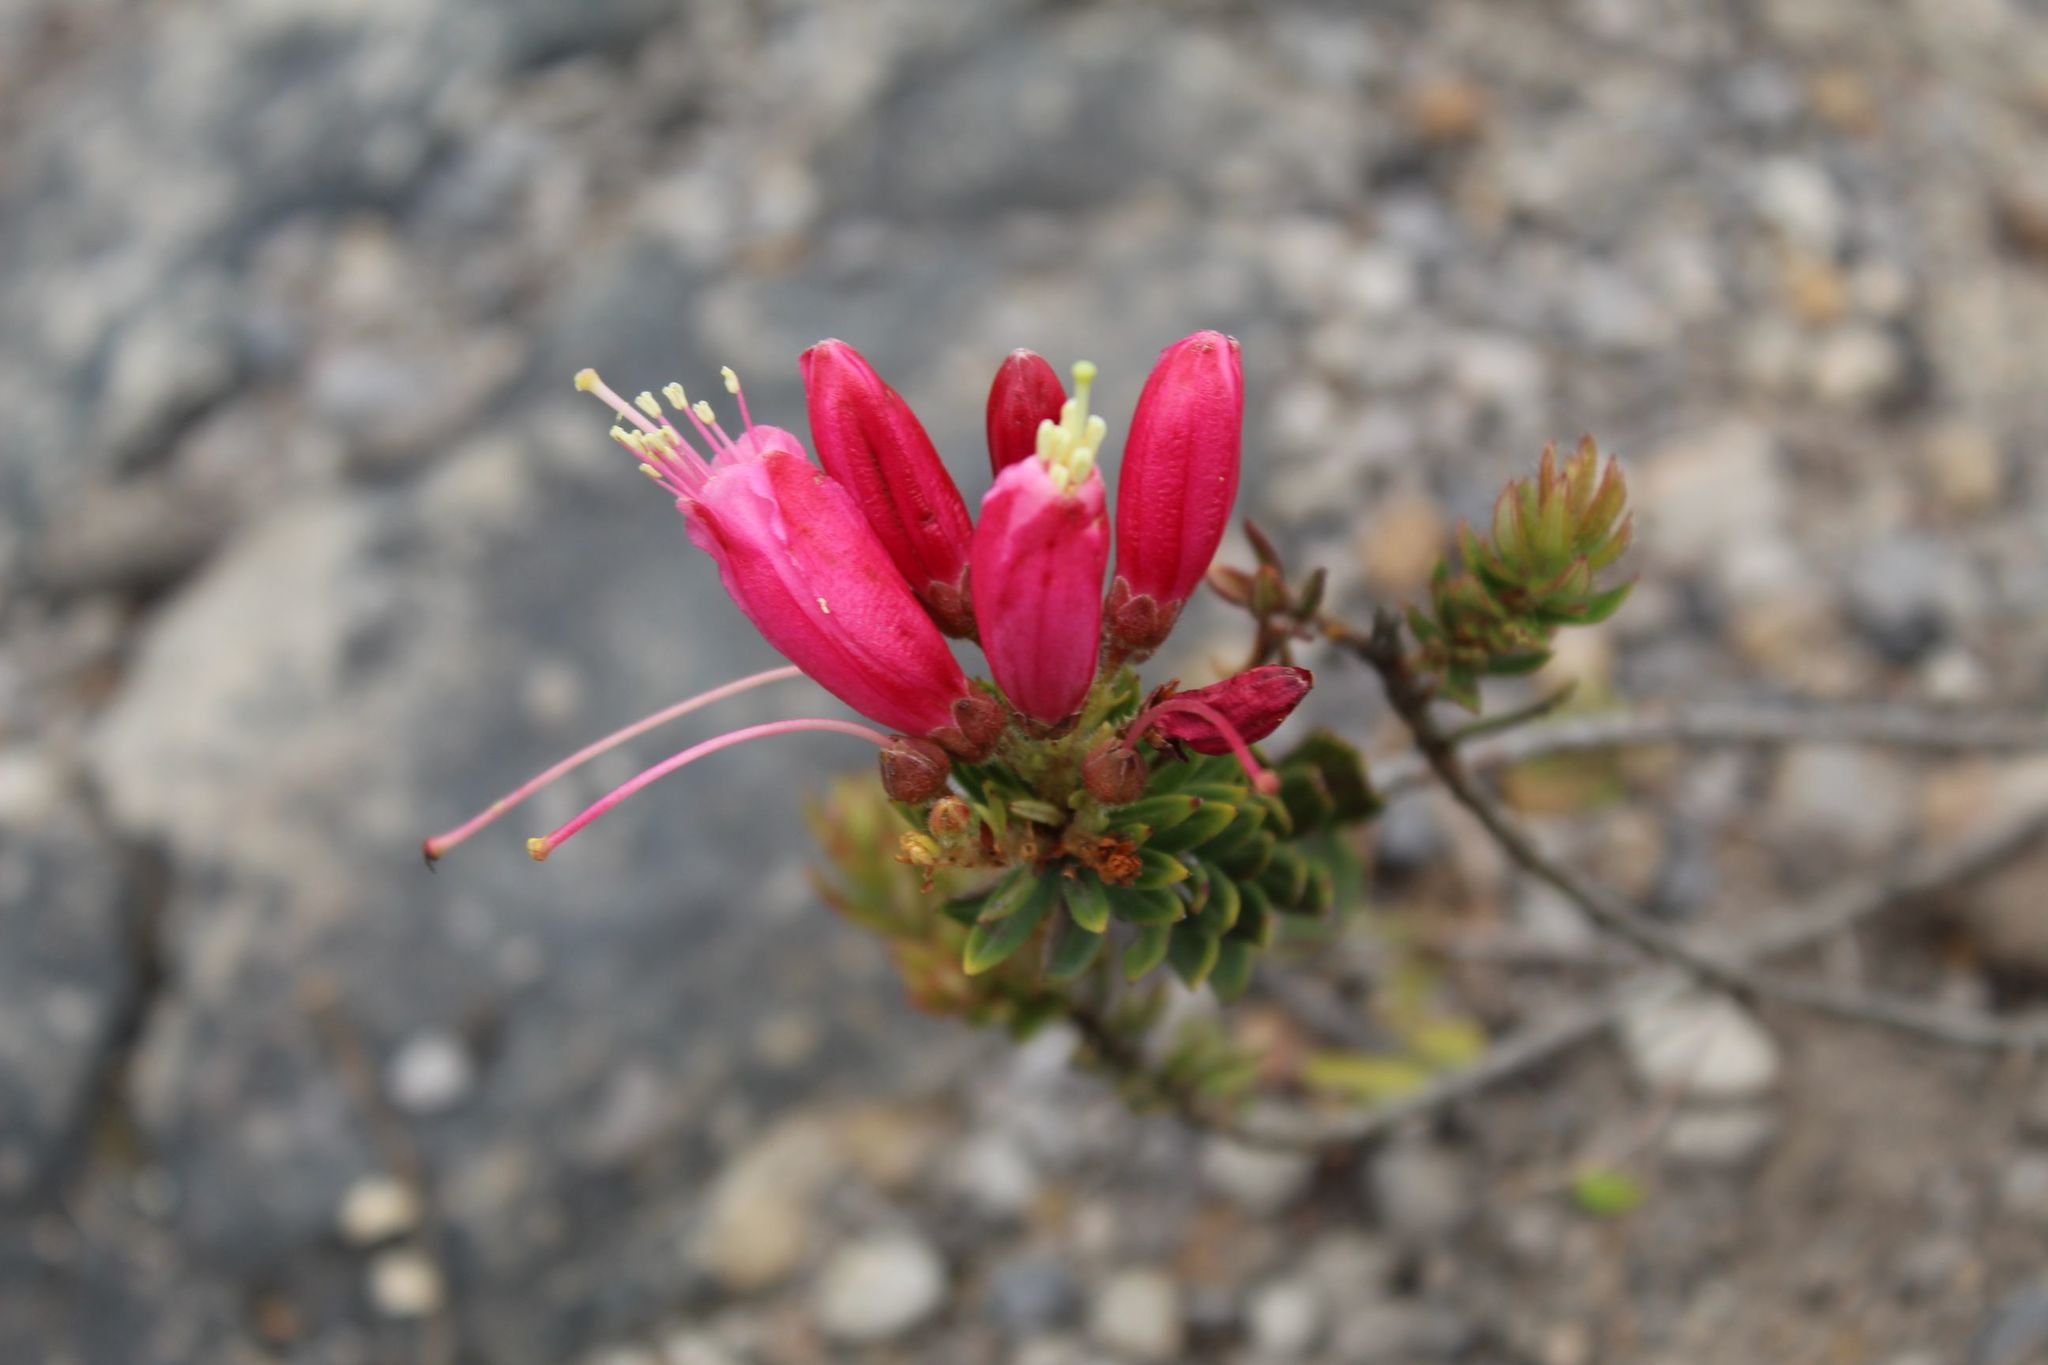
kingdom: Plantae
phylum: Tracheophyta
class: Magnoliopsida
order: Ericales
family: Ericaceae
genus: Bejaria
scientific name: Bejaria resinosa
